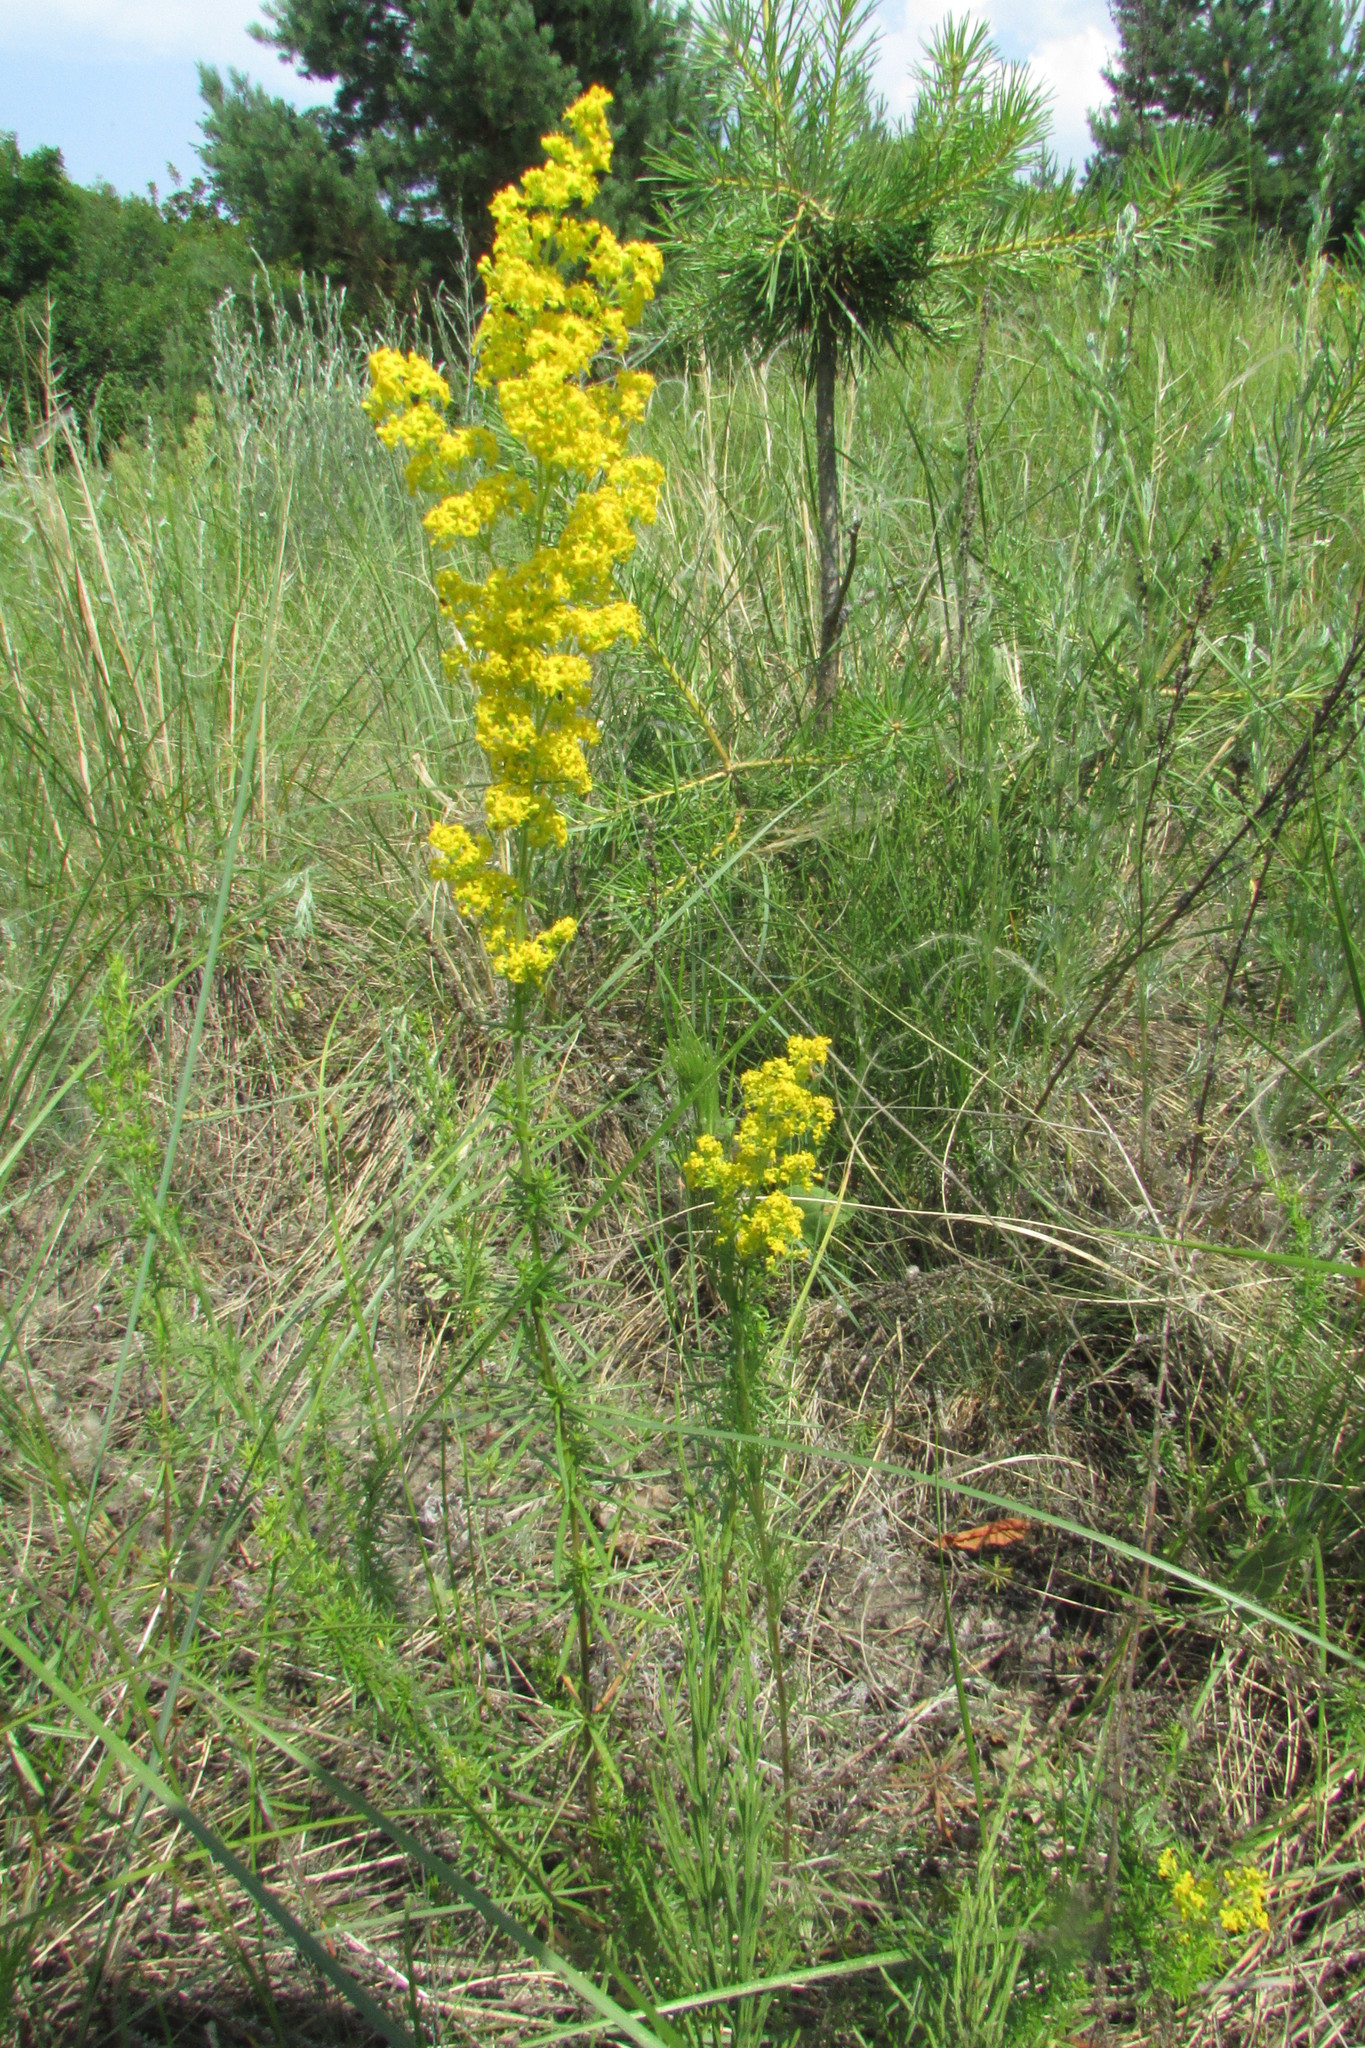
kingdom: Plantae
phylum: Tracheophyta
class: Magnoliopsida
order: Gentianales
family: Rubiaceae
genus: Galium
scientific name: Galium verum
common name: Lady's bedstraw
